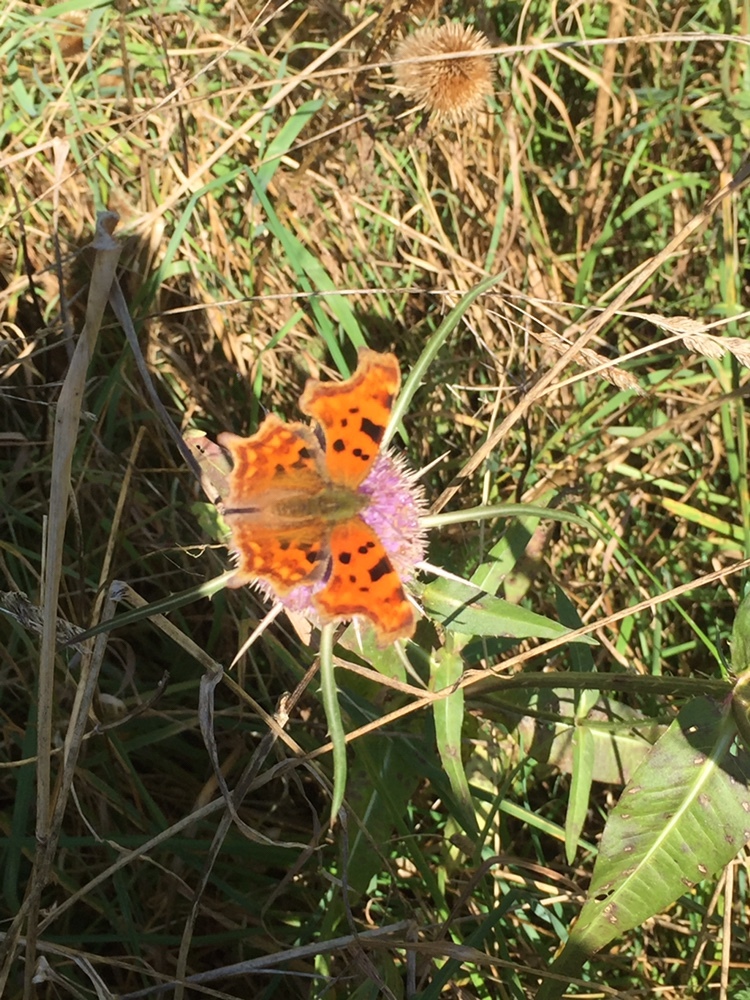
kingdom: Animalia
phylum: Arthropoda
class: Insecta
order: Lepidoptera
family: Nymphalidae
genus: Polygonia
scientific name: Polygonia c-album
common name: Comma
